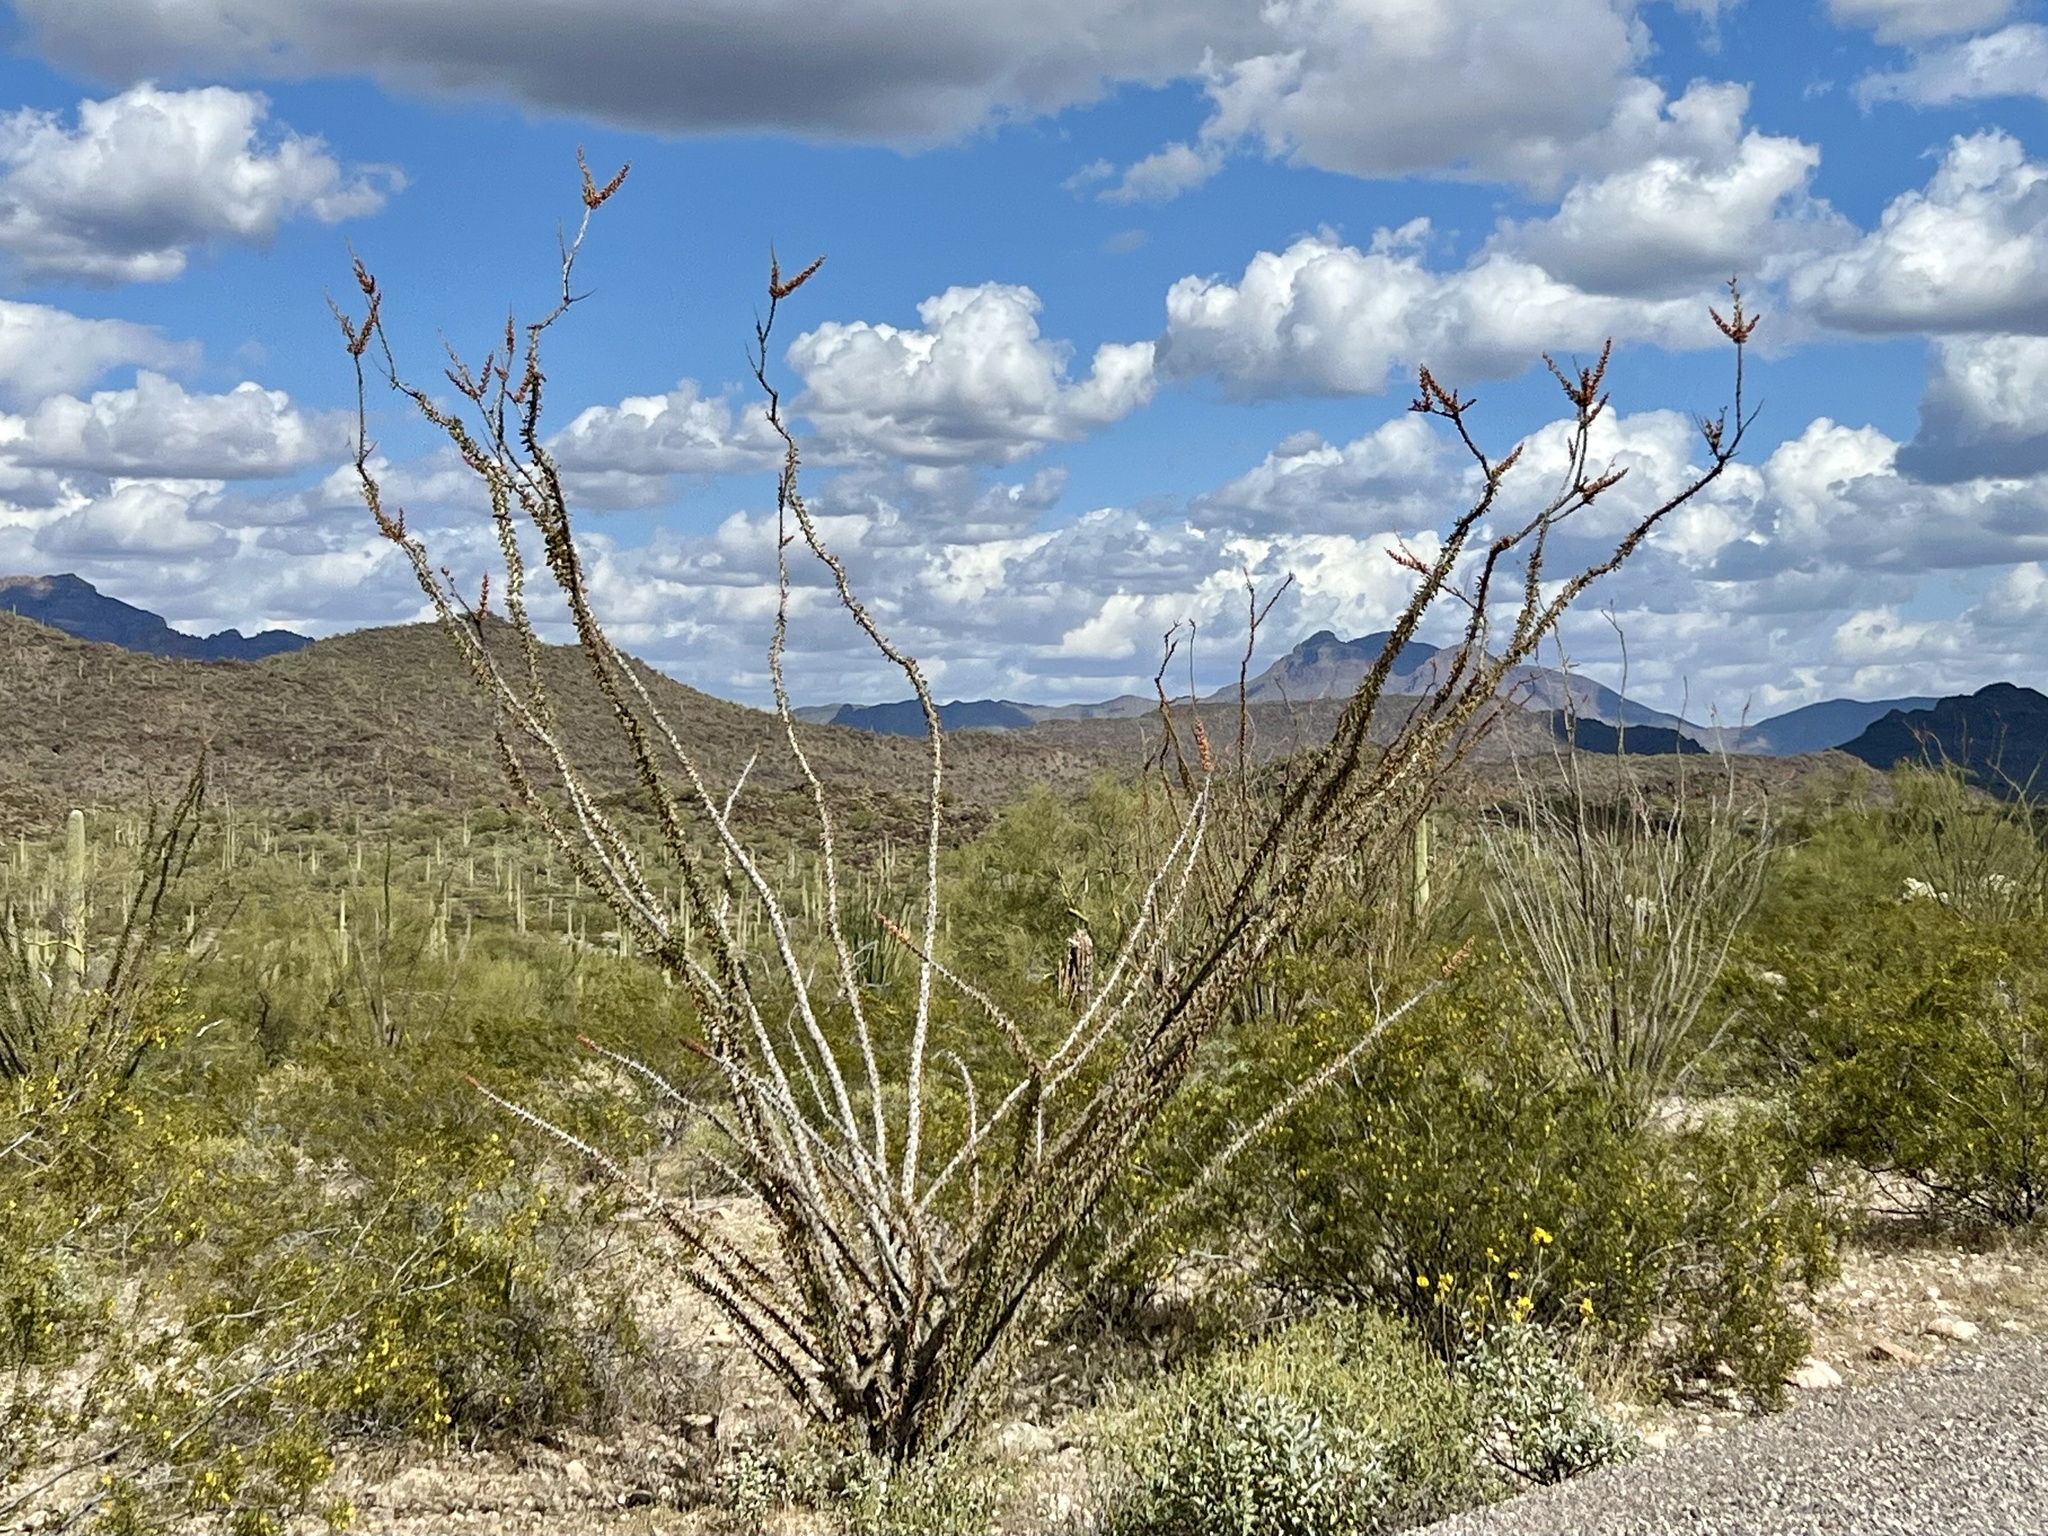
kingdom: Plantae
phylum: Tracheophyta
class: Magnoliopsida
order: Ericales
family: Fouquieriaceae
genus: Fouquieria
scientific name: Fouquieria splendens
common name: Vine-cactus
